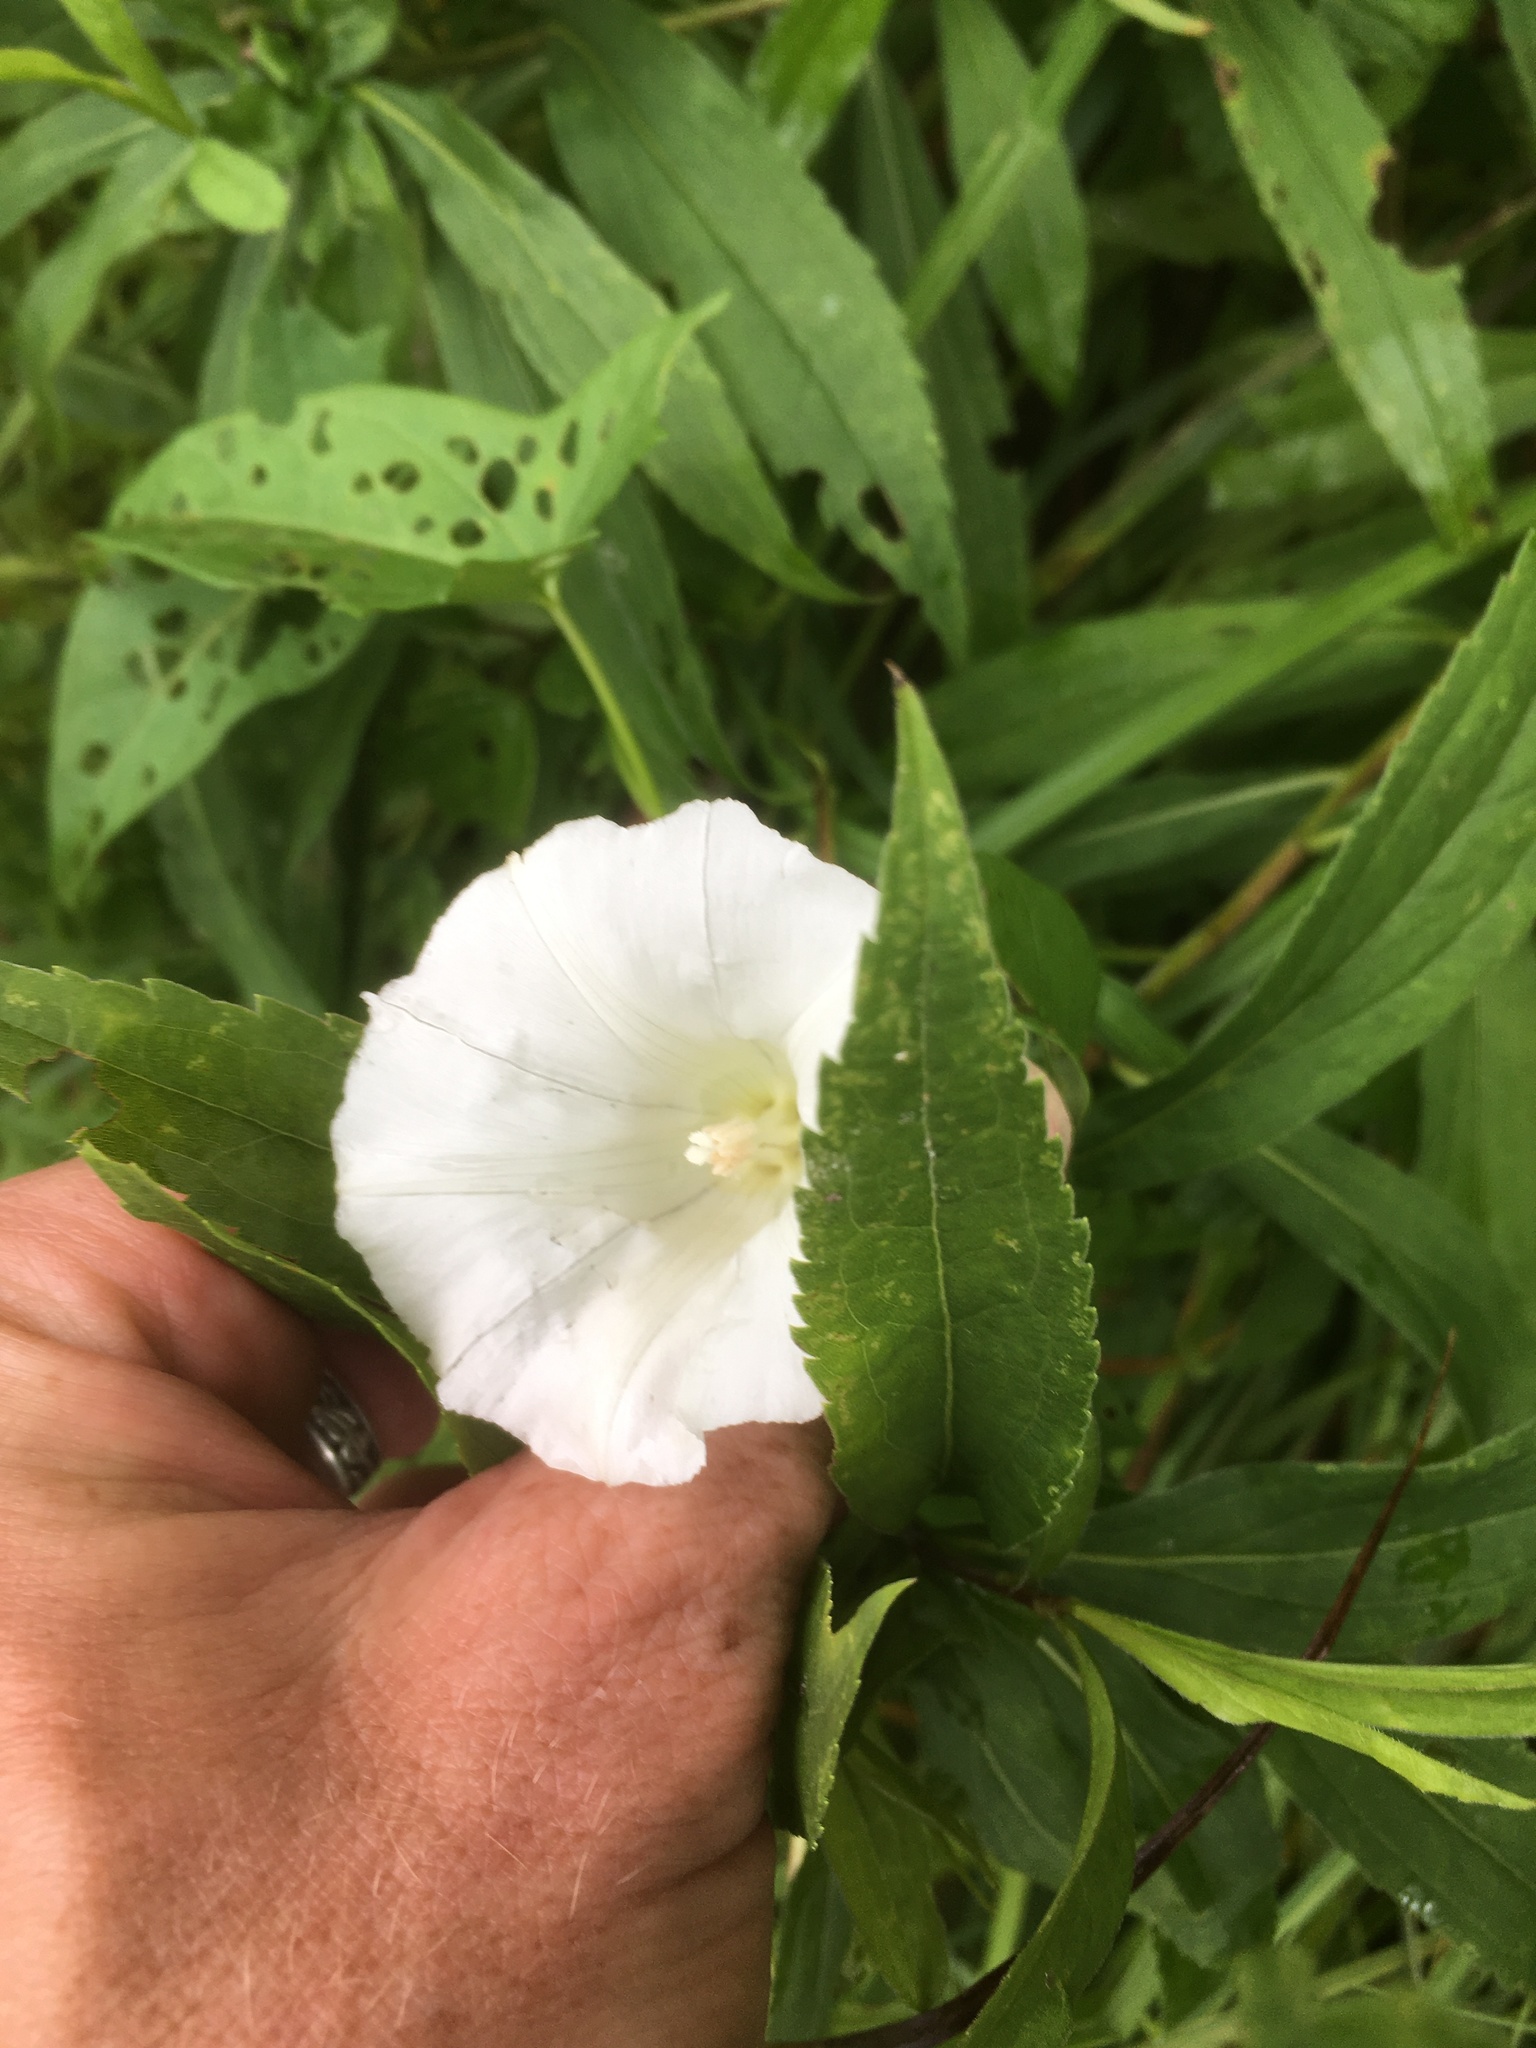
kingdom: Plantae
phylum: Tracheophyta
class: Magnoliopsida
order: Solanales
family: Convolvulaceae
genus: Calystegia
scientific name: Calystegia sepium
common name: Hedge bindweed
